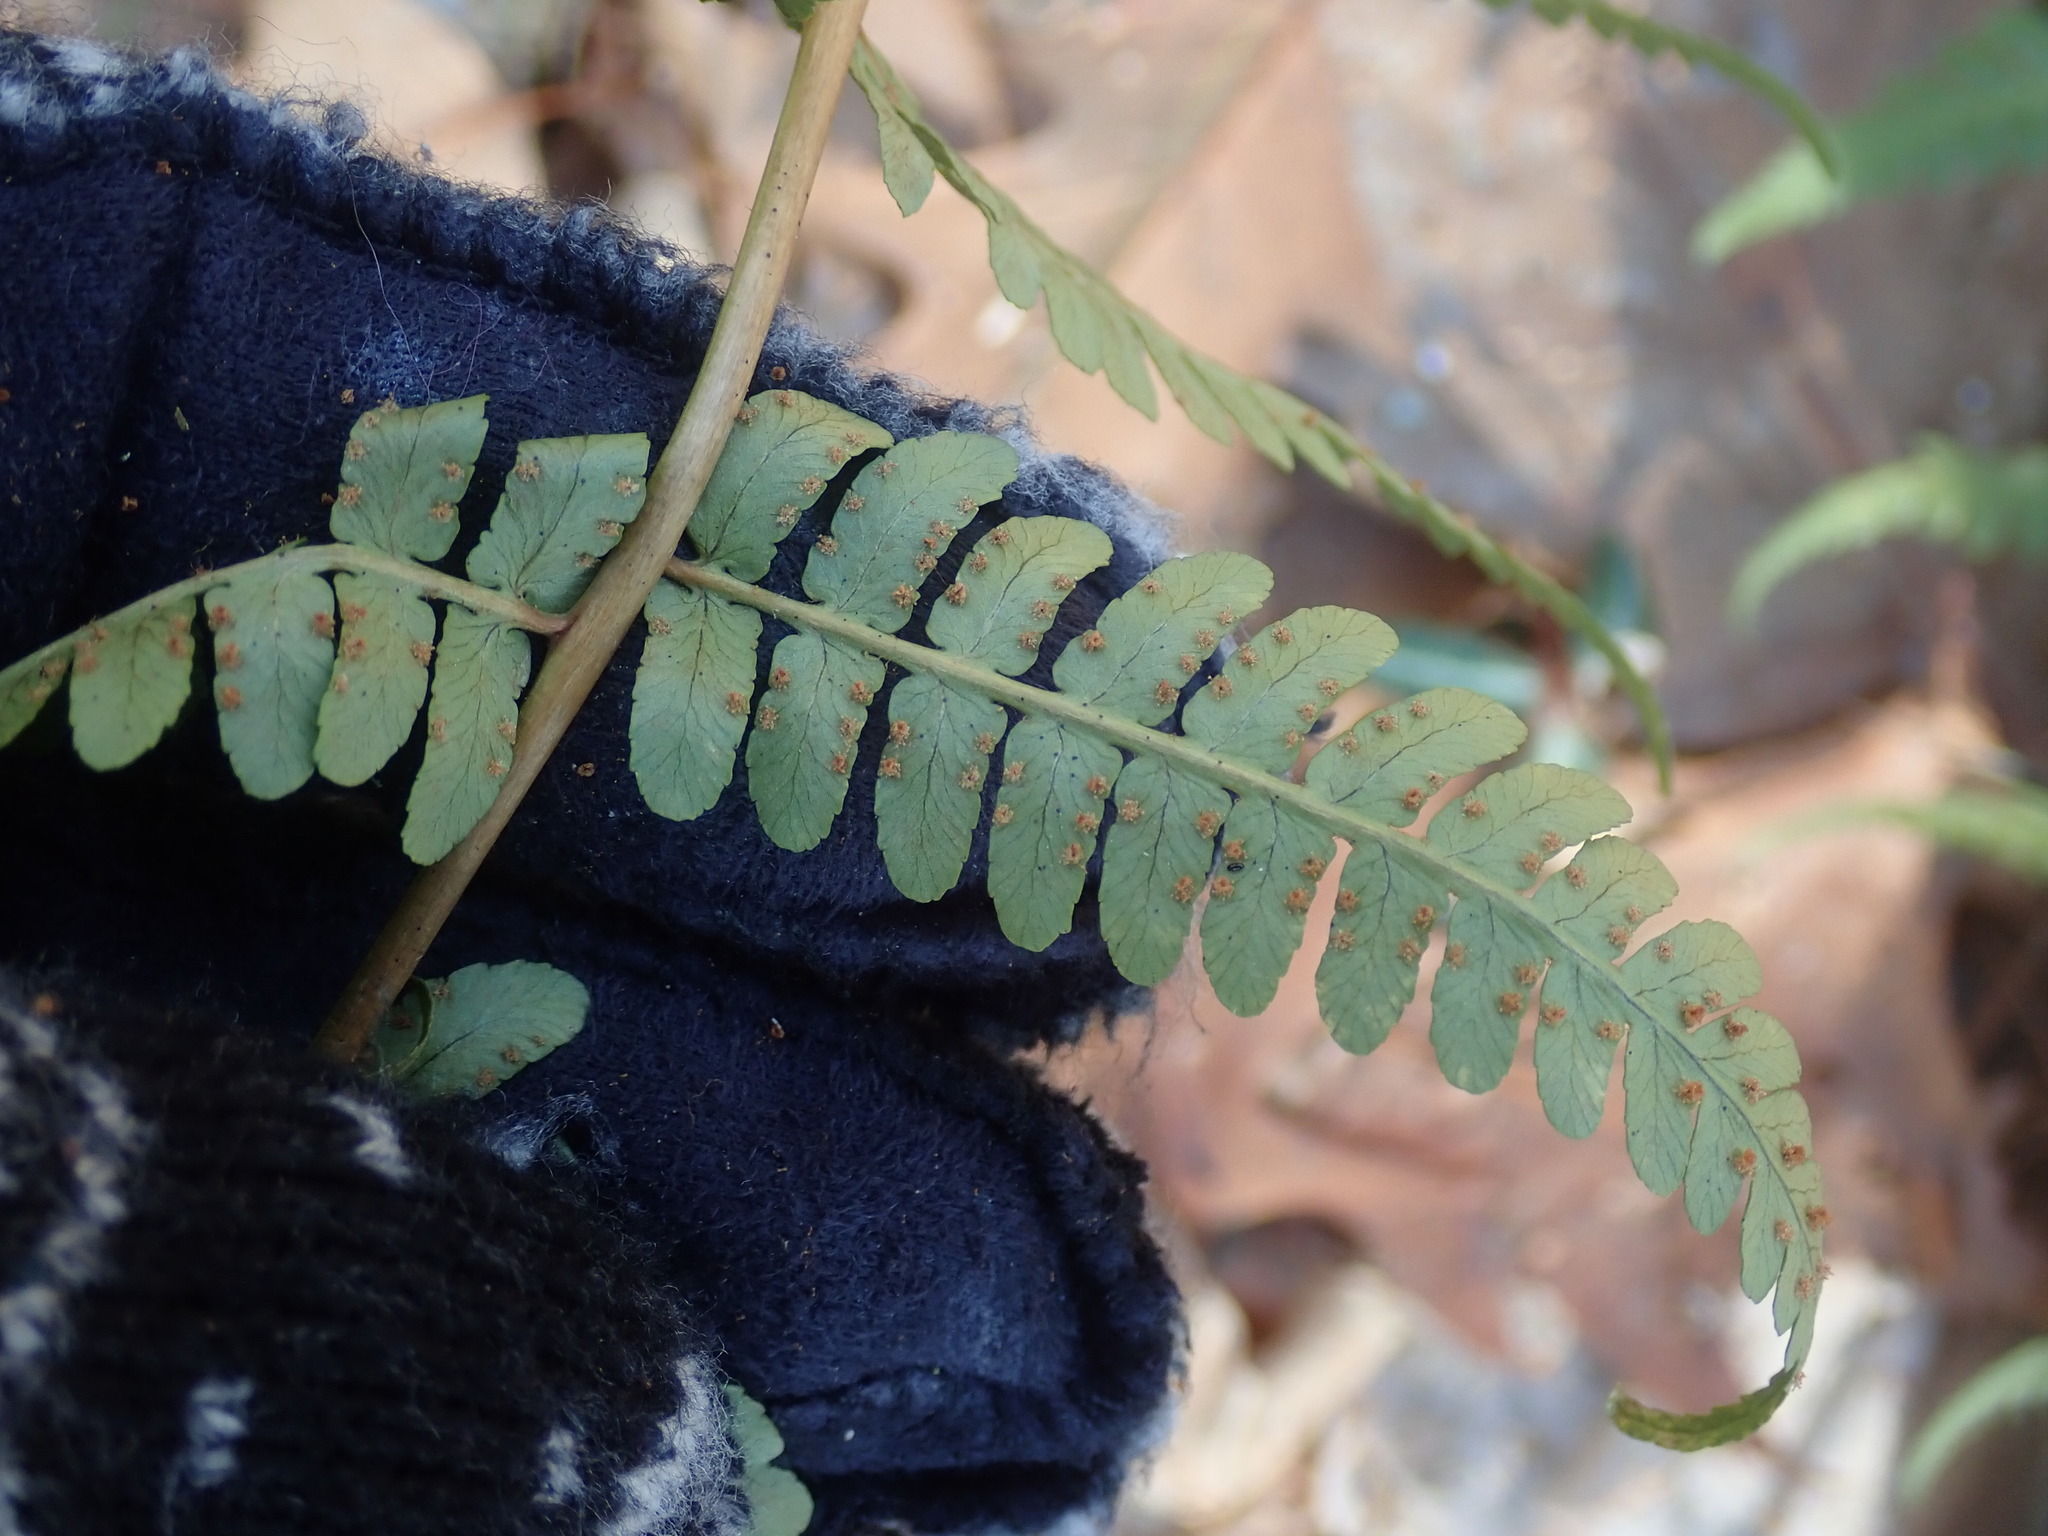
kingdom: Plantae
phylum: Tracheophyta
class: Polypodiopsida
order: Polypodiales
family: Dryopteridaceae
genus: Dryopteris
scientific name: Dryopteris marginalis
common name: Marginal wood fern
